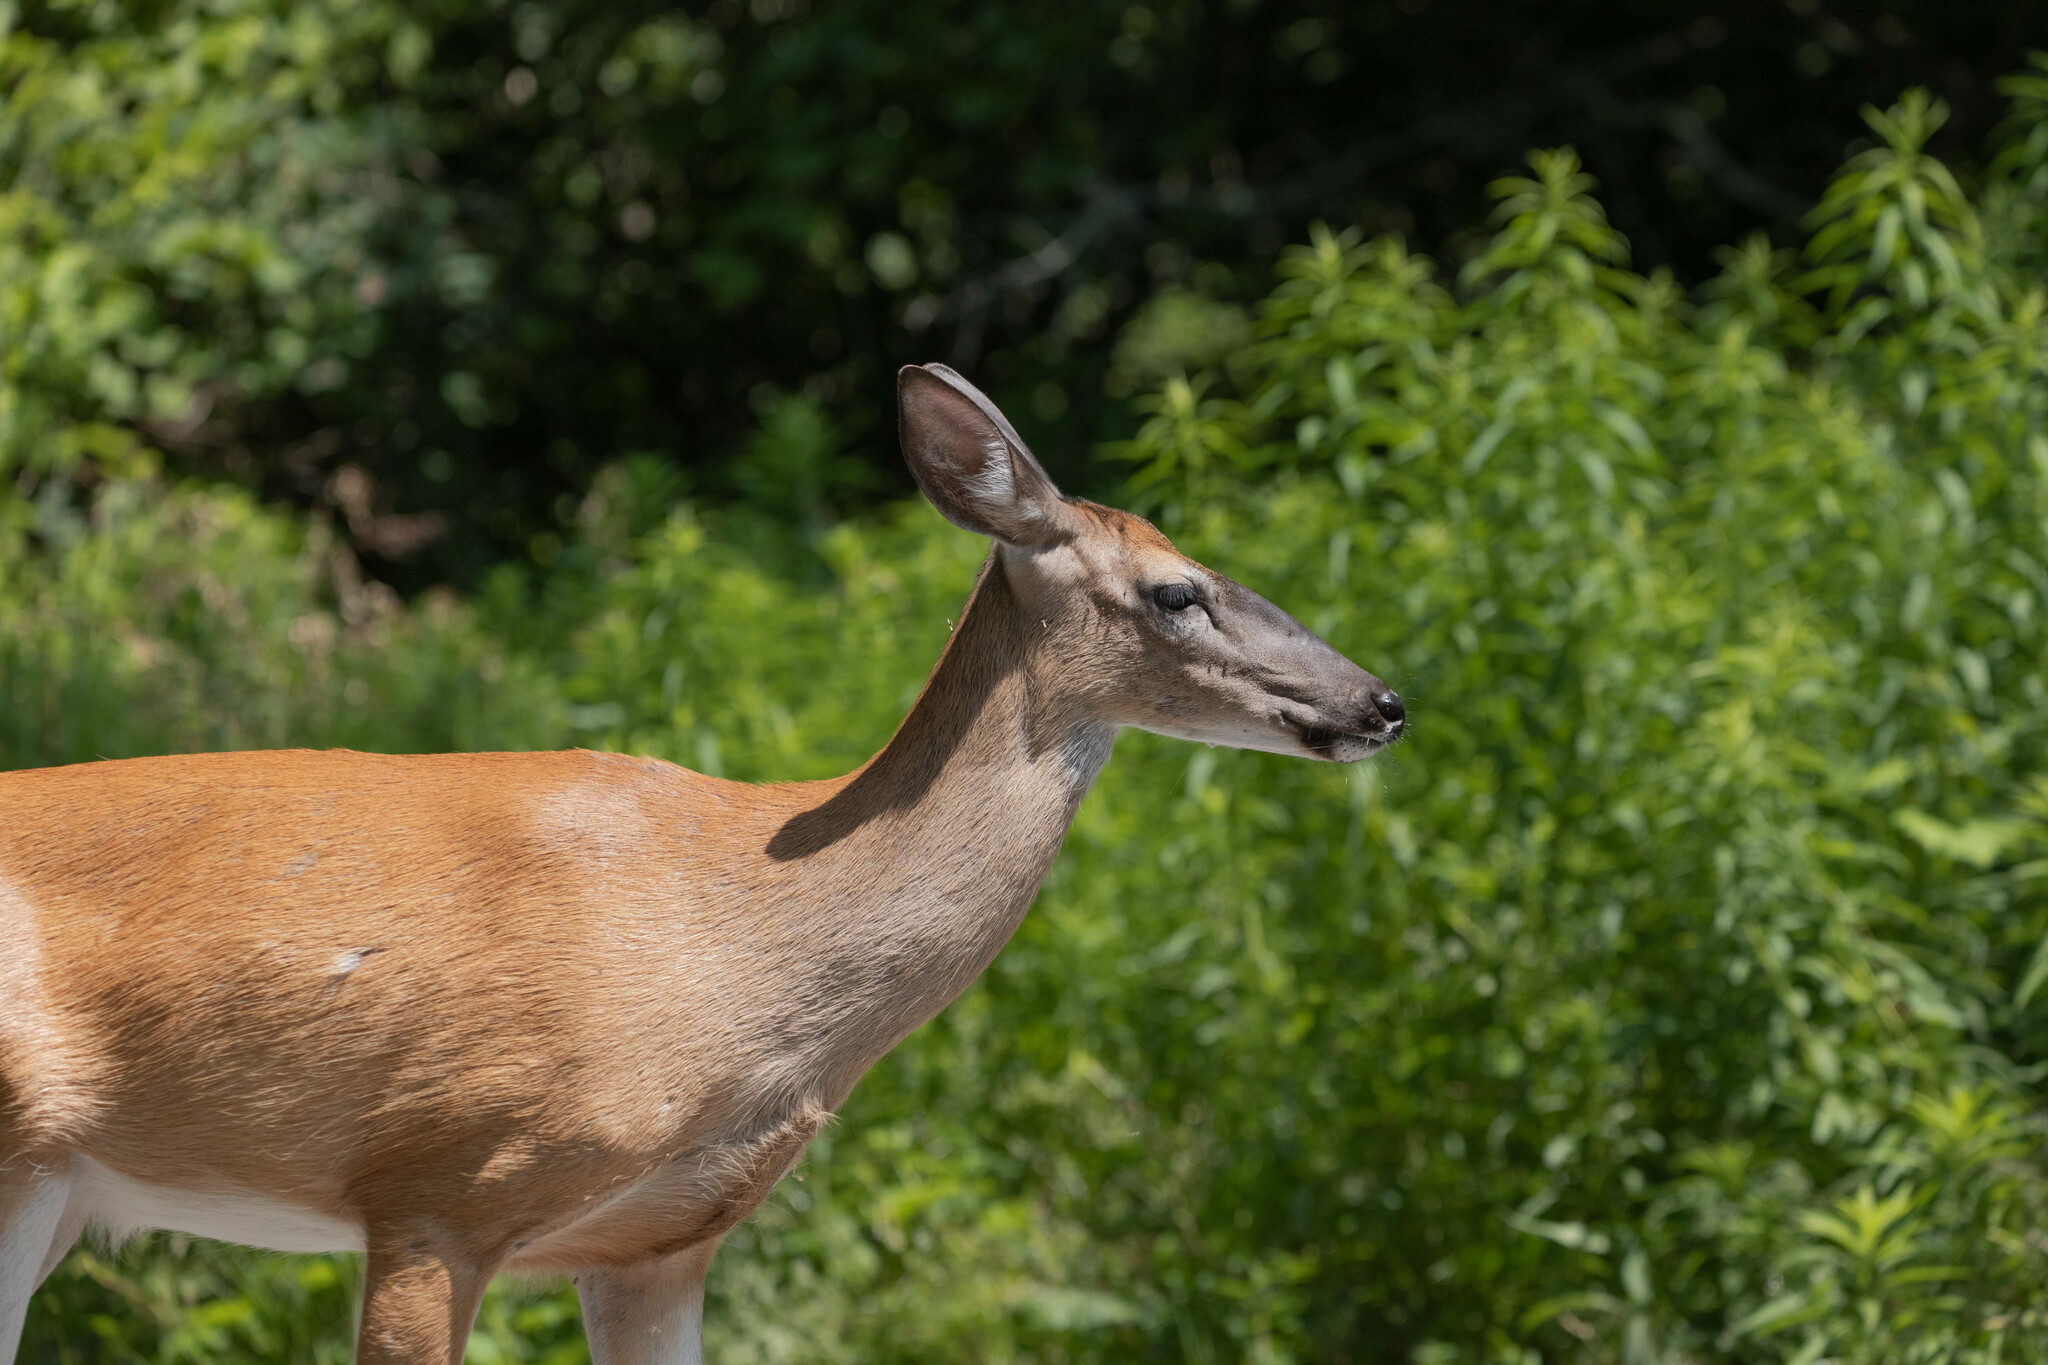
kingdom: Animalia
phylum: Chordata
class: Mammalia
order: Artiodactyla
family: Cervidae
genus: Odocoileus
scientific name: Odocoileus virginianus
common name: White-tailed deer
